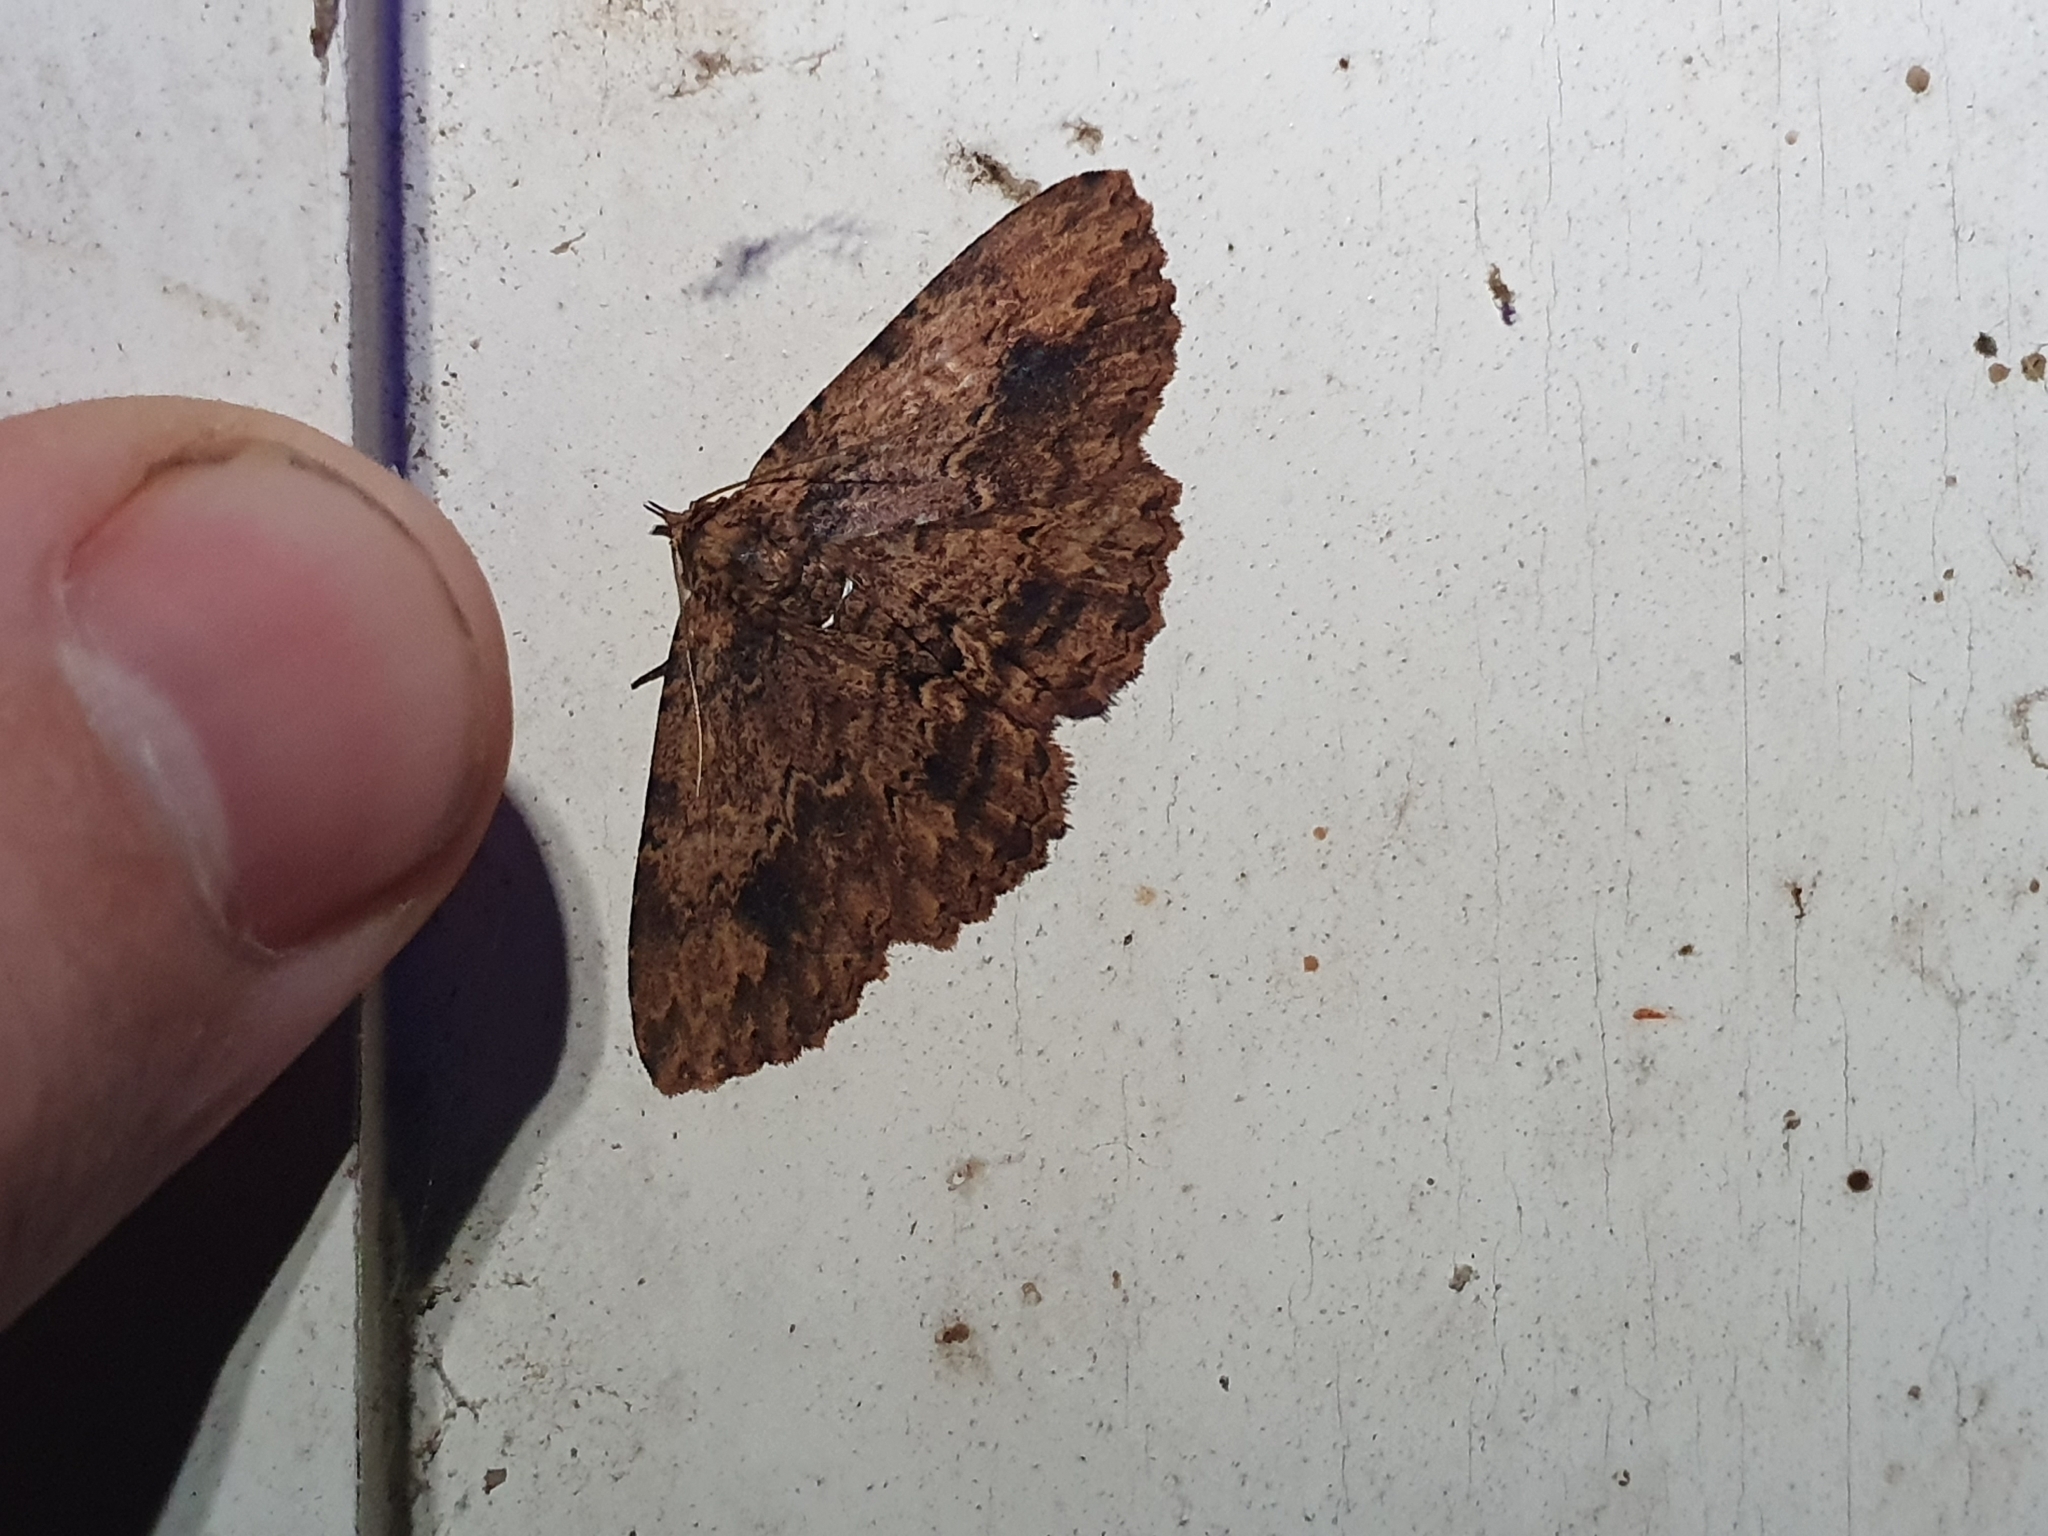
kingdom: Animalia
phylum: Arthropoda
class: Insecta
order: Lepidoptera
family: Erebidae
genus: Artigisa
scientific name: Artigisa melanephele
